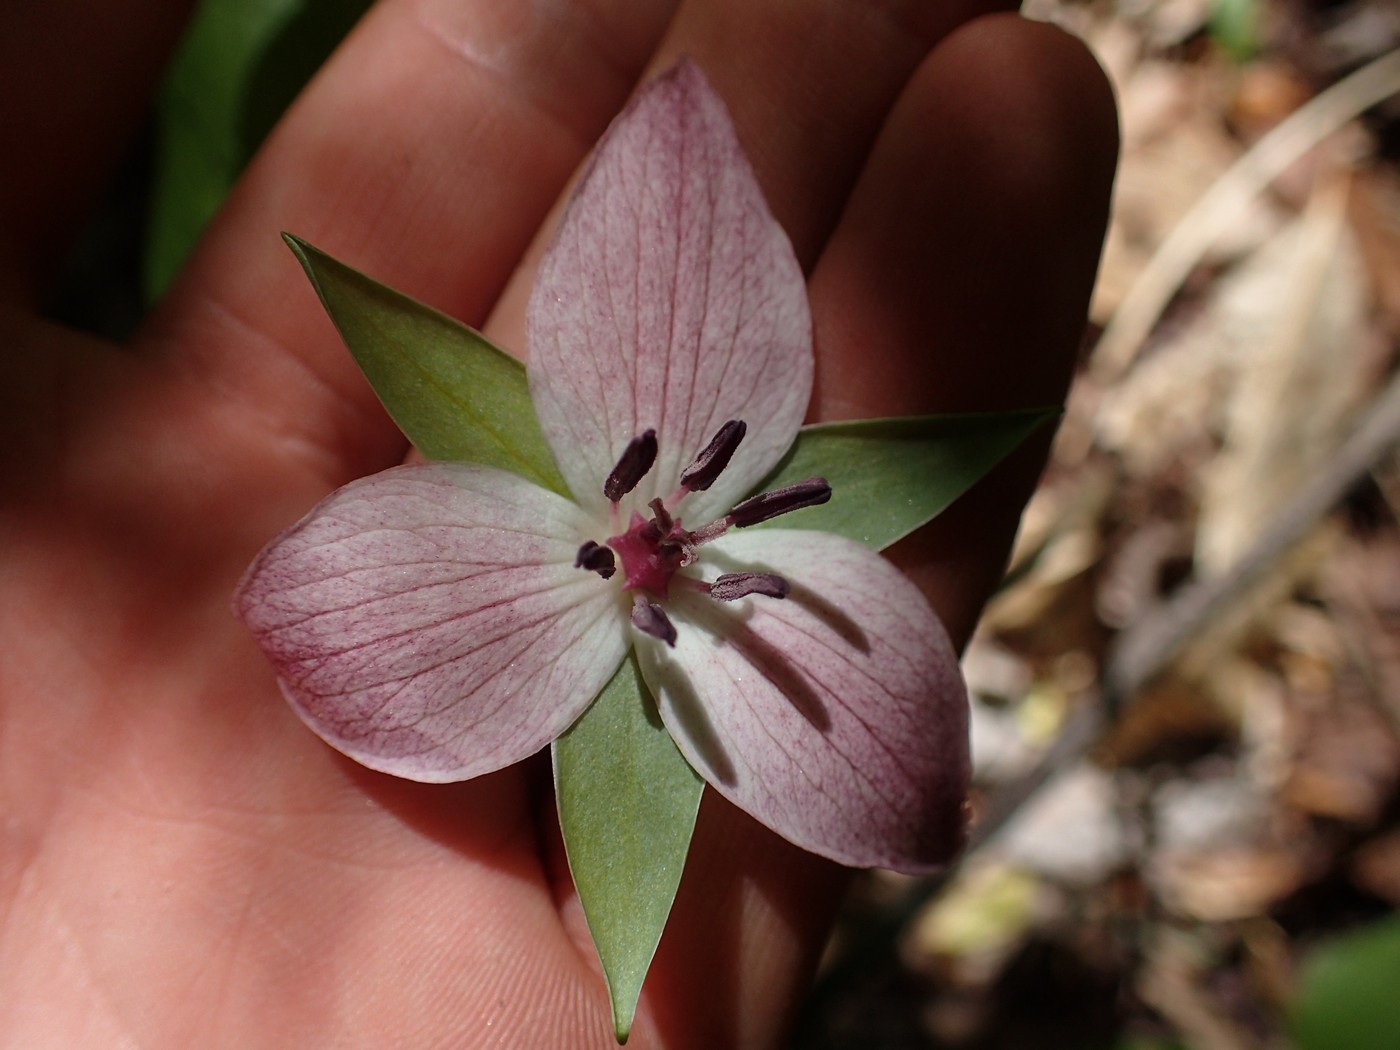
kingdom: Plantae
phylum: Tracheophyta
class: Liliopsida
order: Liliales
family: Melanthiaceae
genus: Trillium
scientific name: Trillium rugelii
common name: Ill-scented trillium
